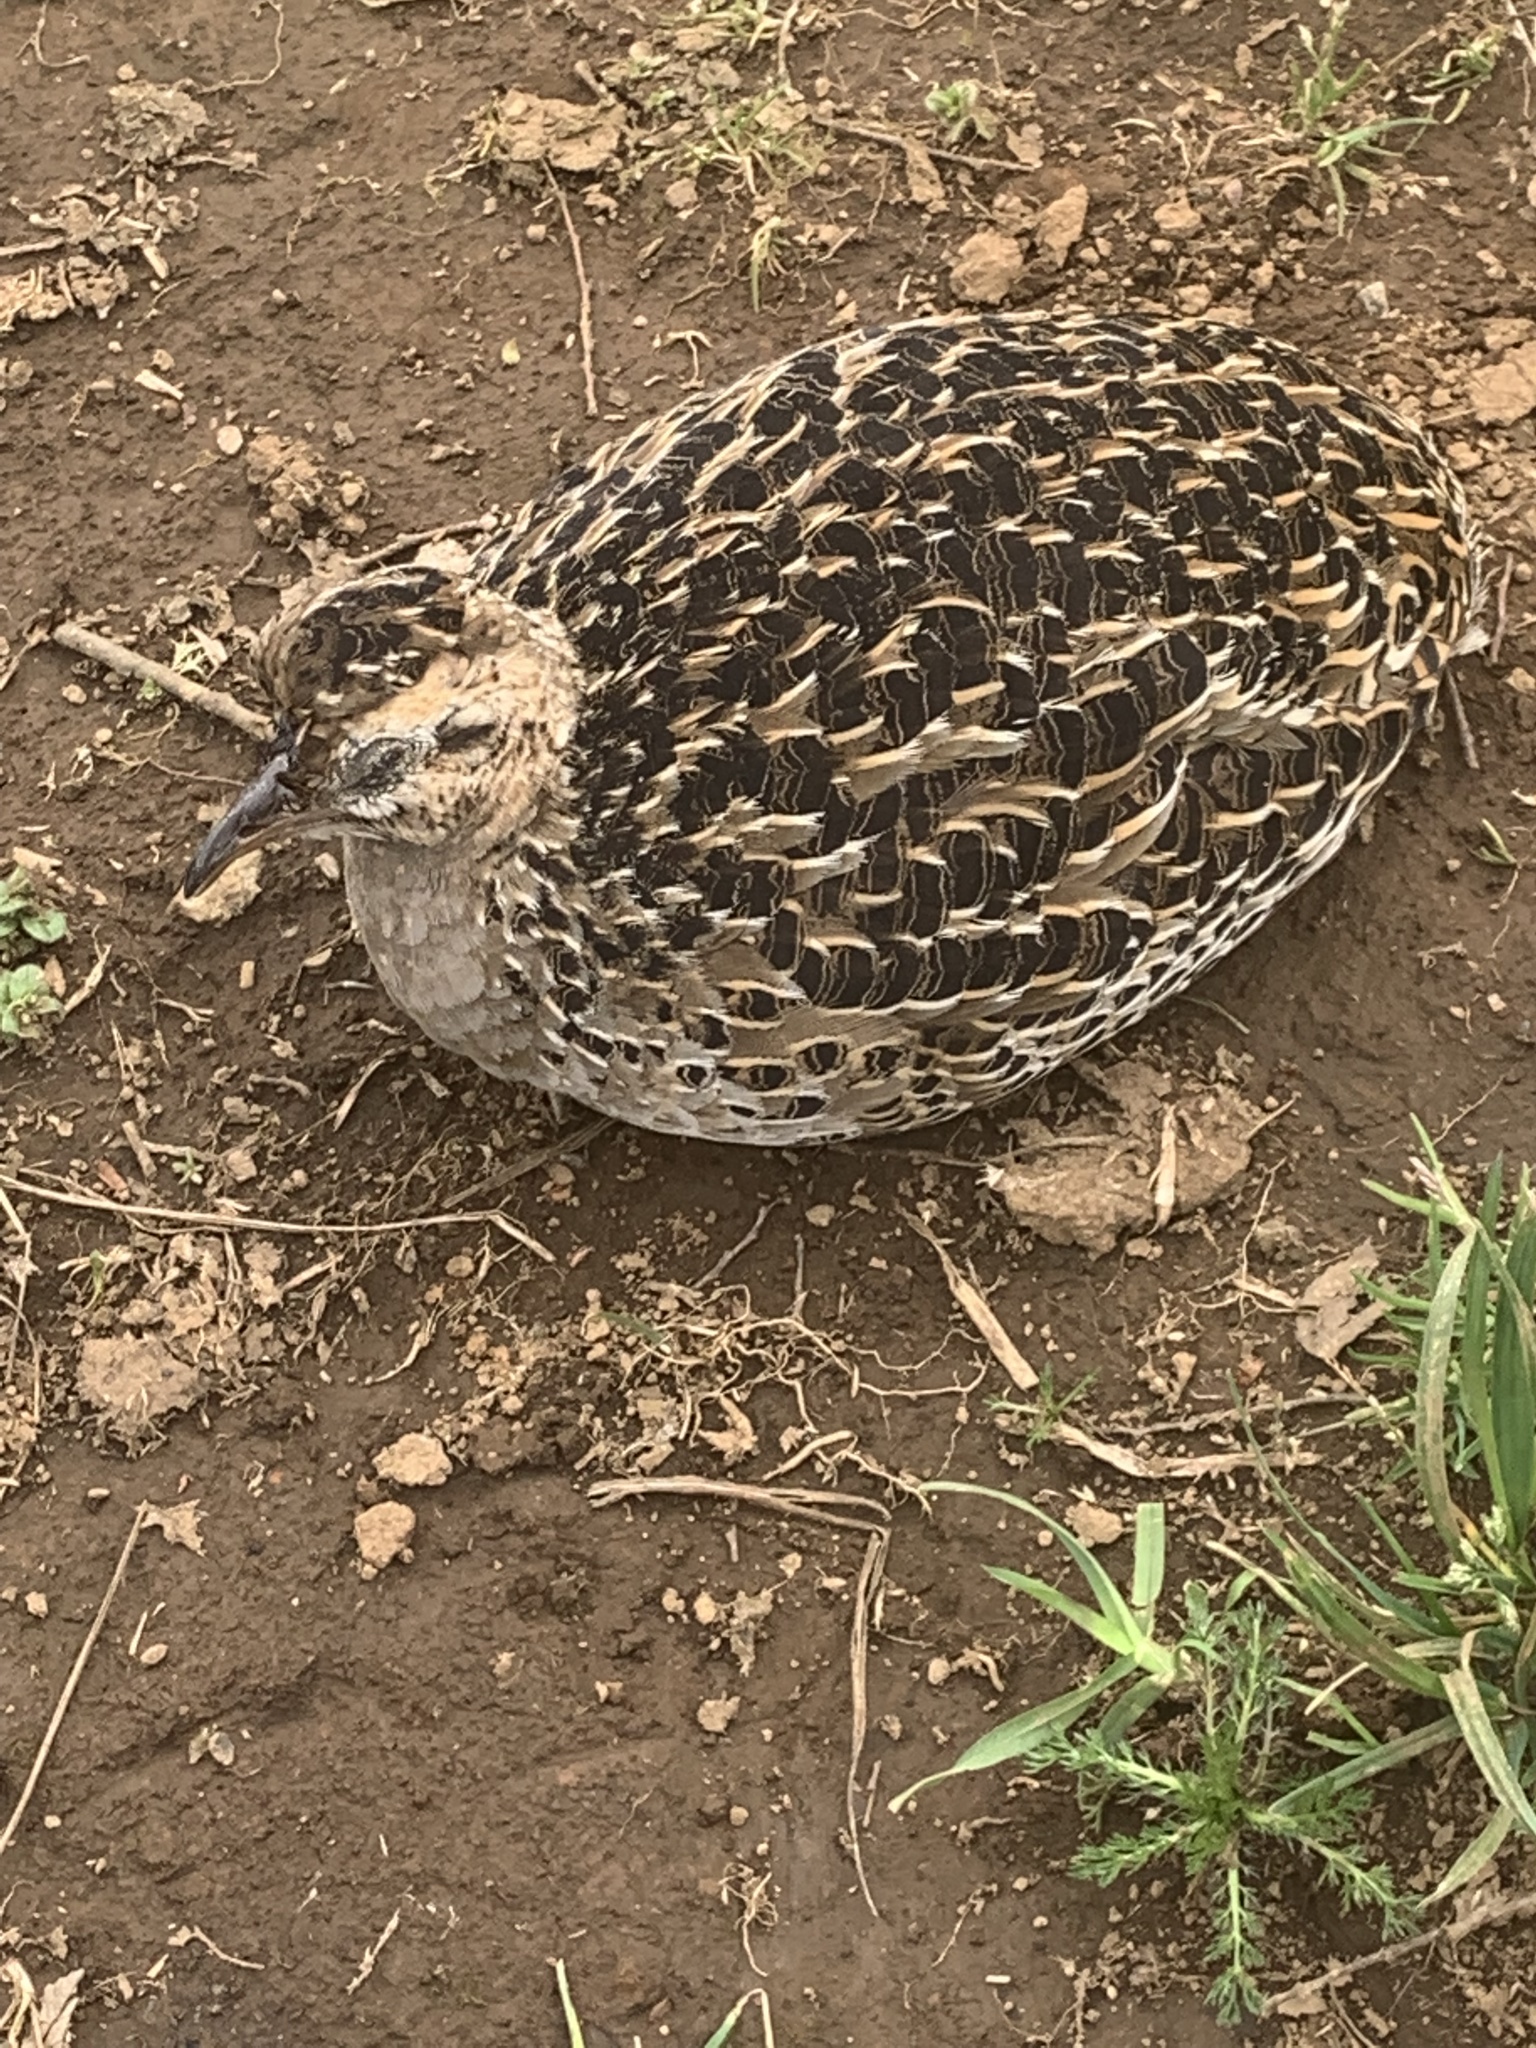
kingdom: Animalia
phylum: Chordata
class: Aves
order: Tinamiformes
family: Tinamidae
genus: Nothoprocta
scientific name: Nothoprocta perdicaria
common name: Chilean tinamou
